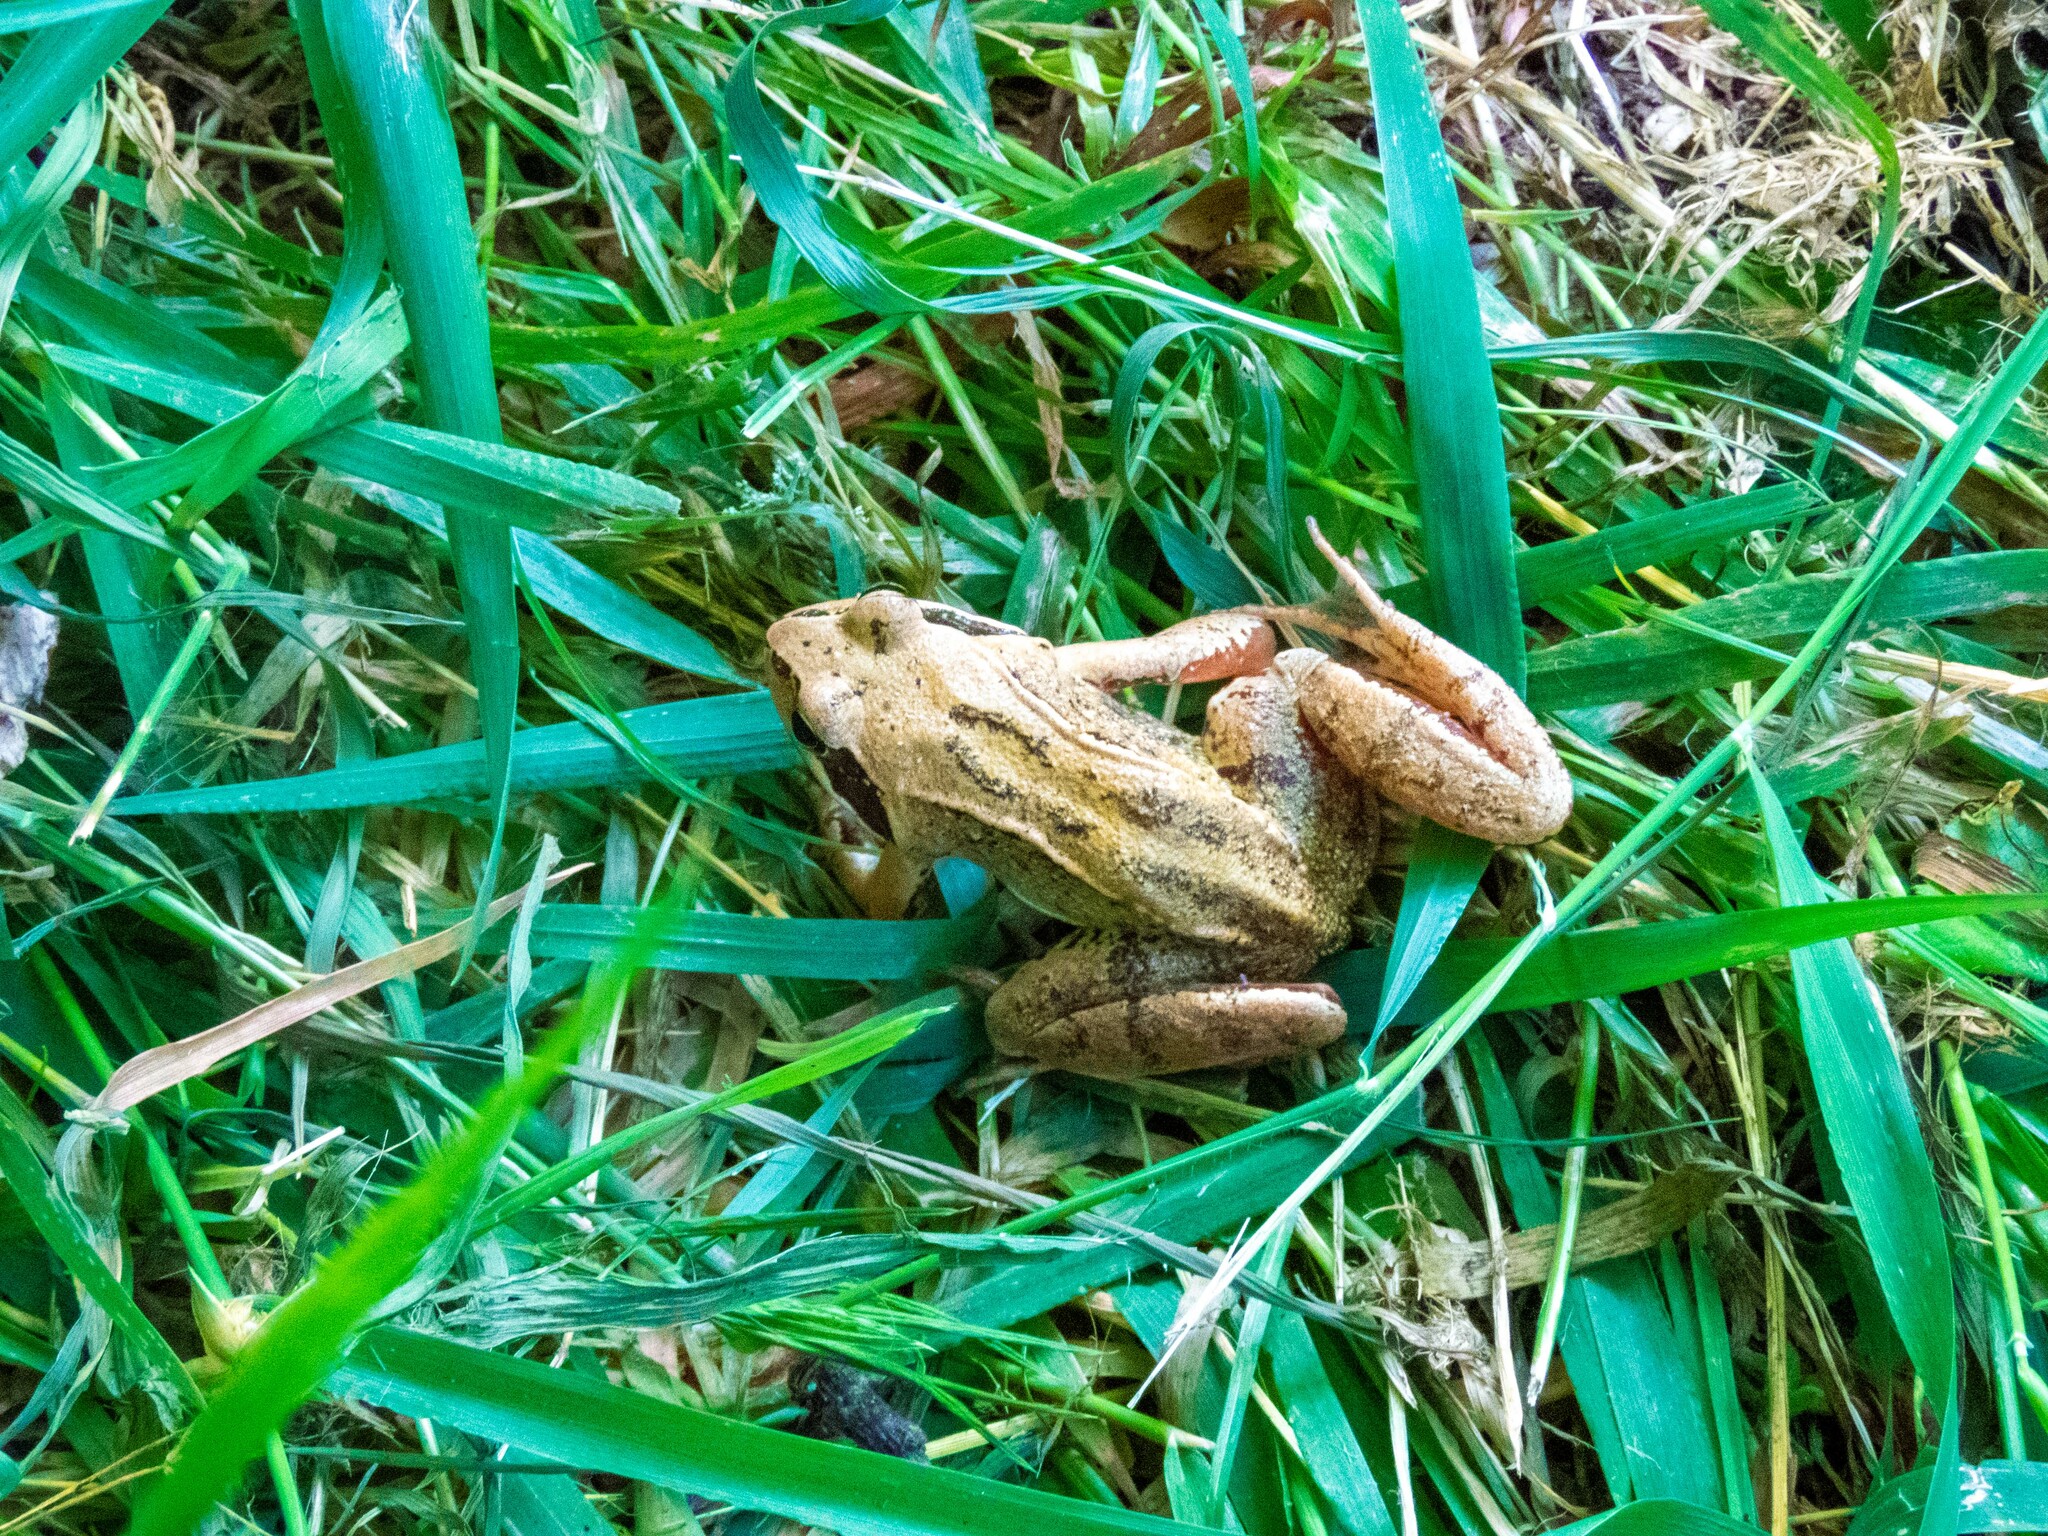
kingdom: Animalia
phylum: Chordata
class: Amphibia
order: Anura
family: Ranidae
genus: Rana
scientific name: Rana temporaria
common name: Common frog
